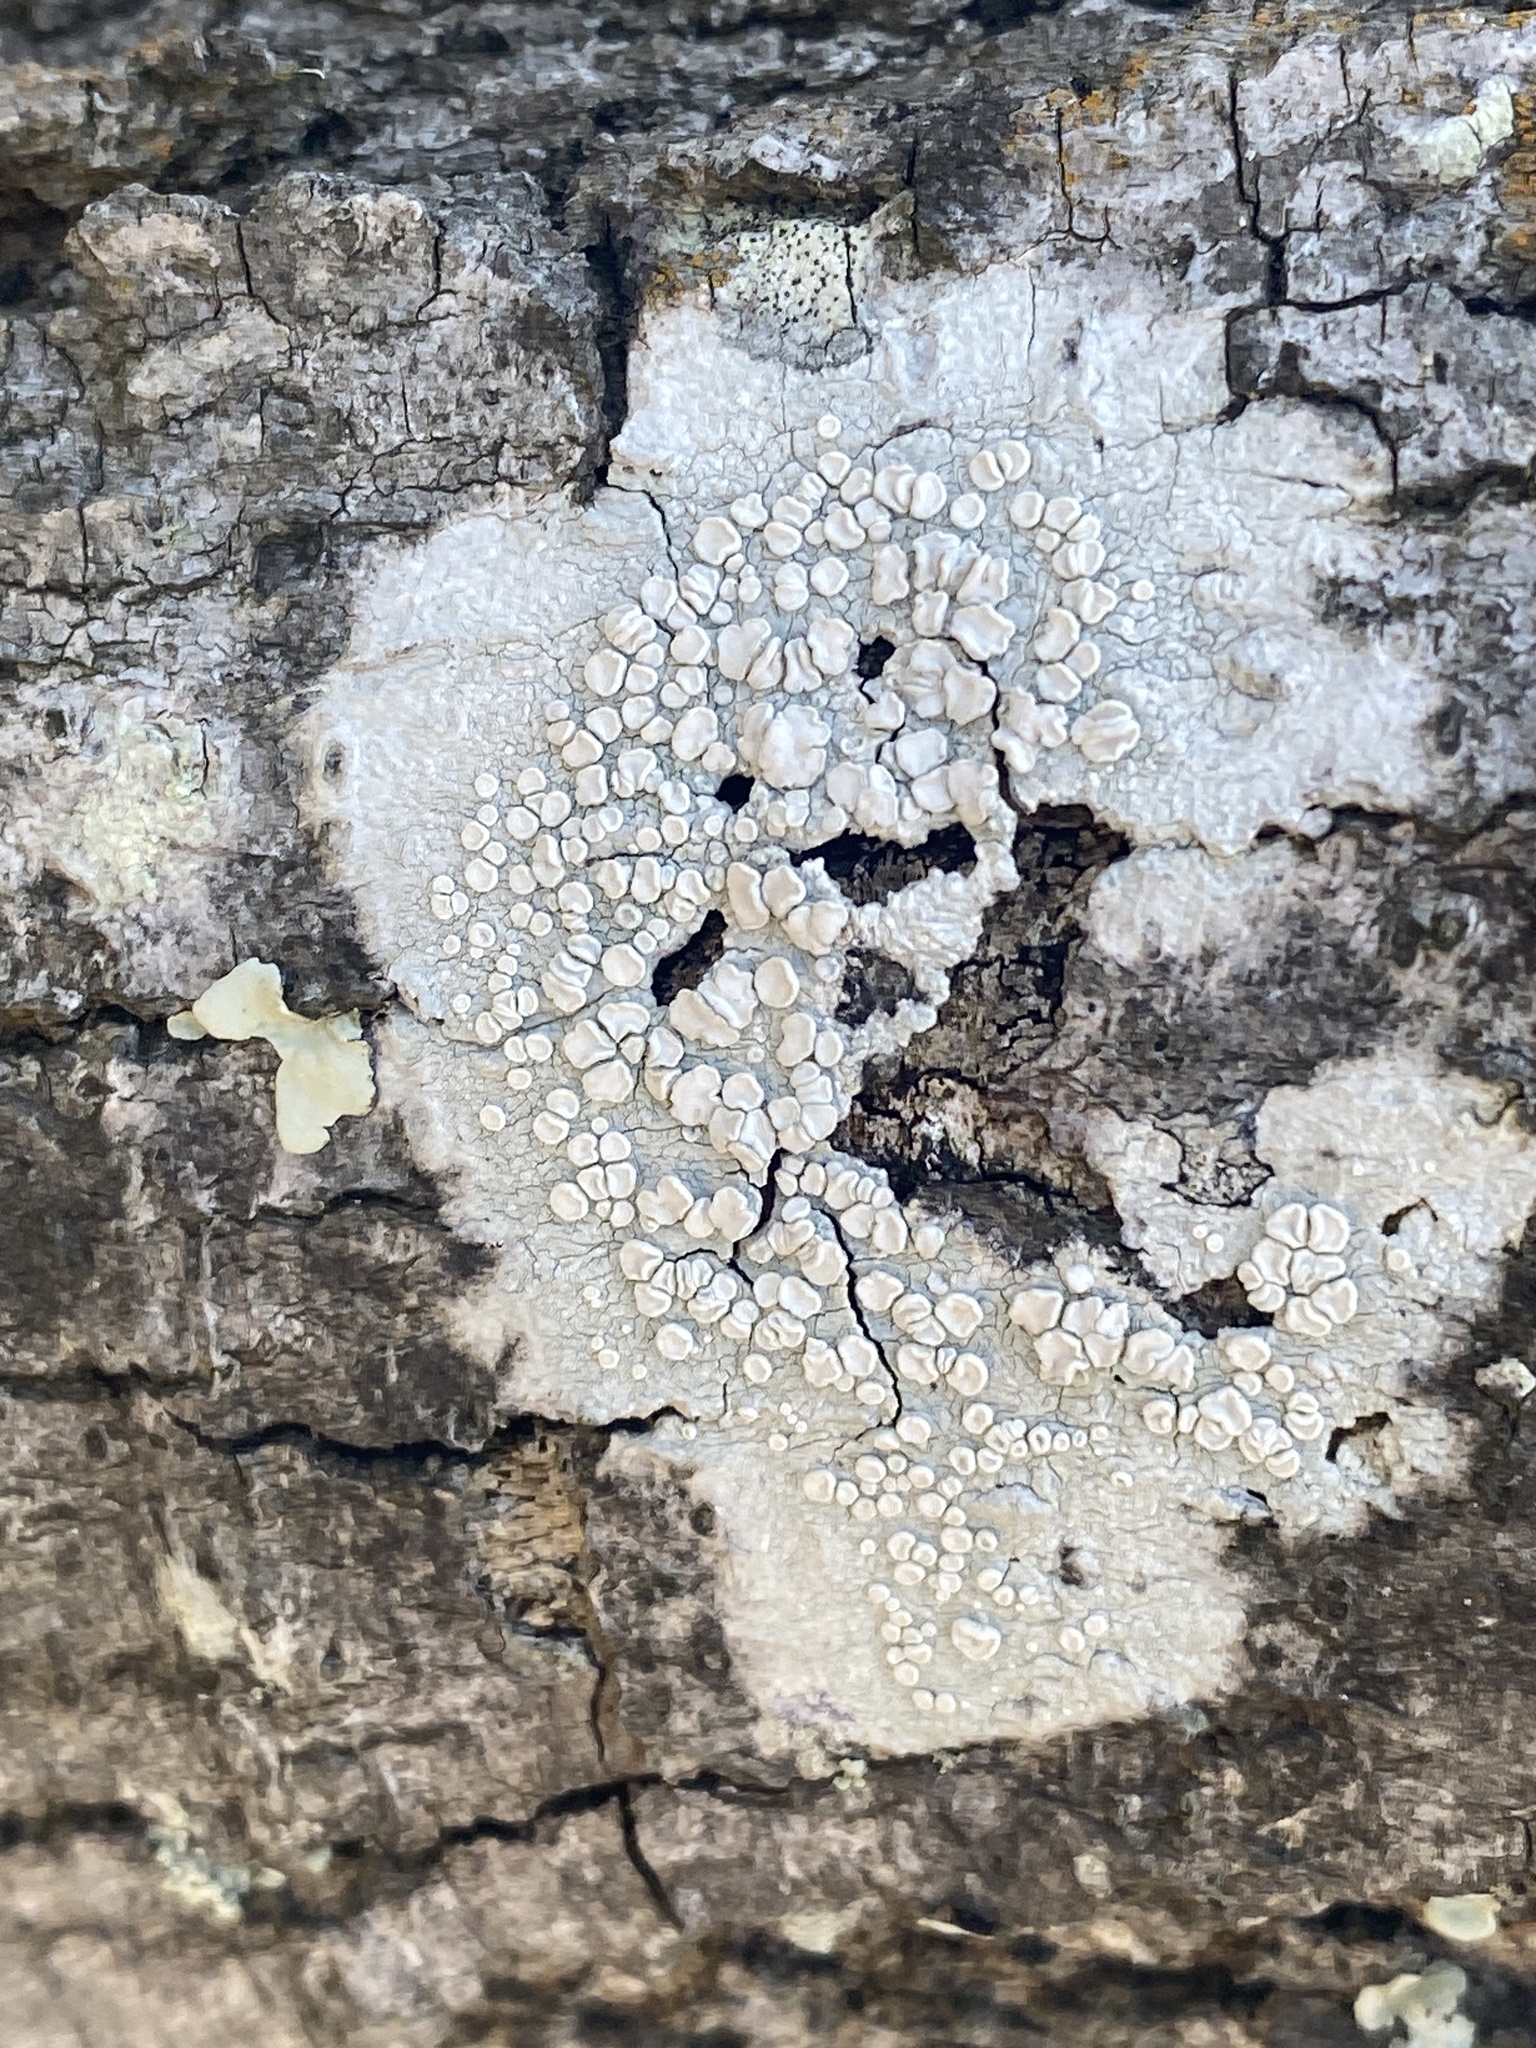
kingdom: Fungi
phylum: Ascomycota
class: Lecanoromycetes
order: Lecanorales
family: Lecanoraceae
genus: Lecanora
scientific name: Lecanora caesiorubella
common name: Frosted rim-lichen
